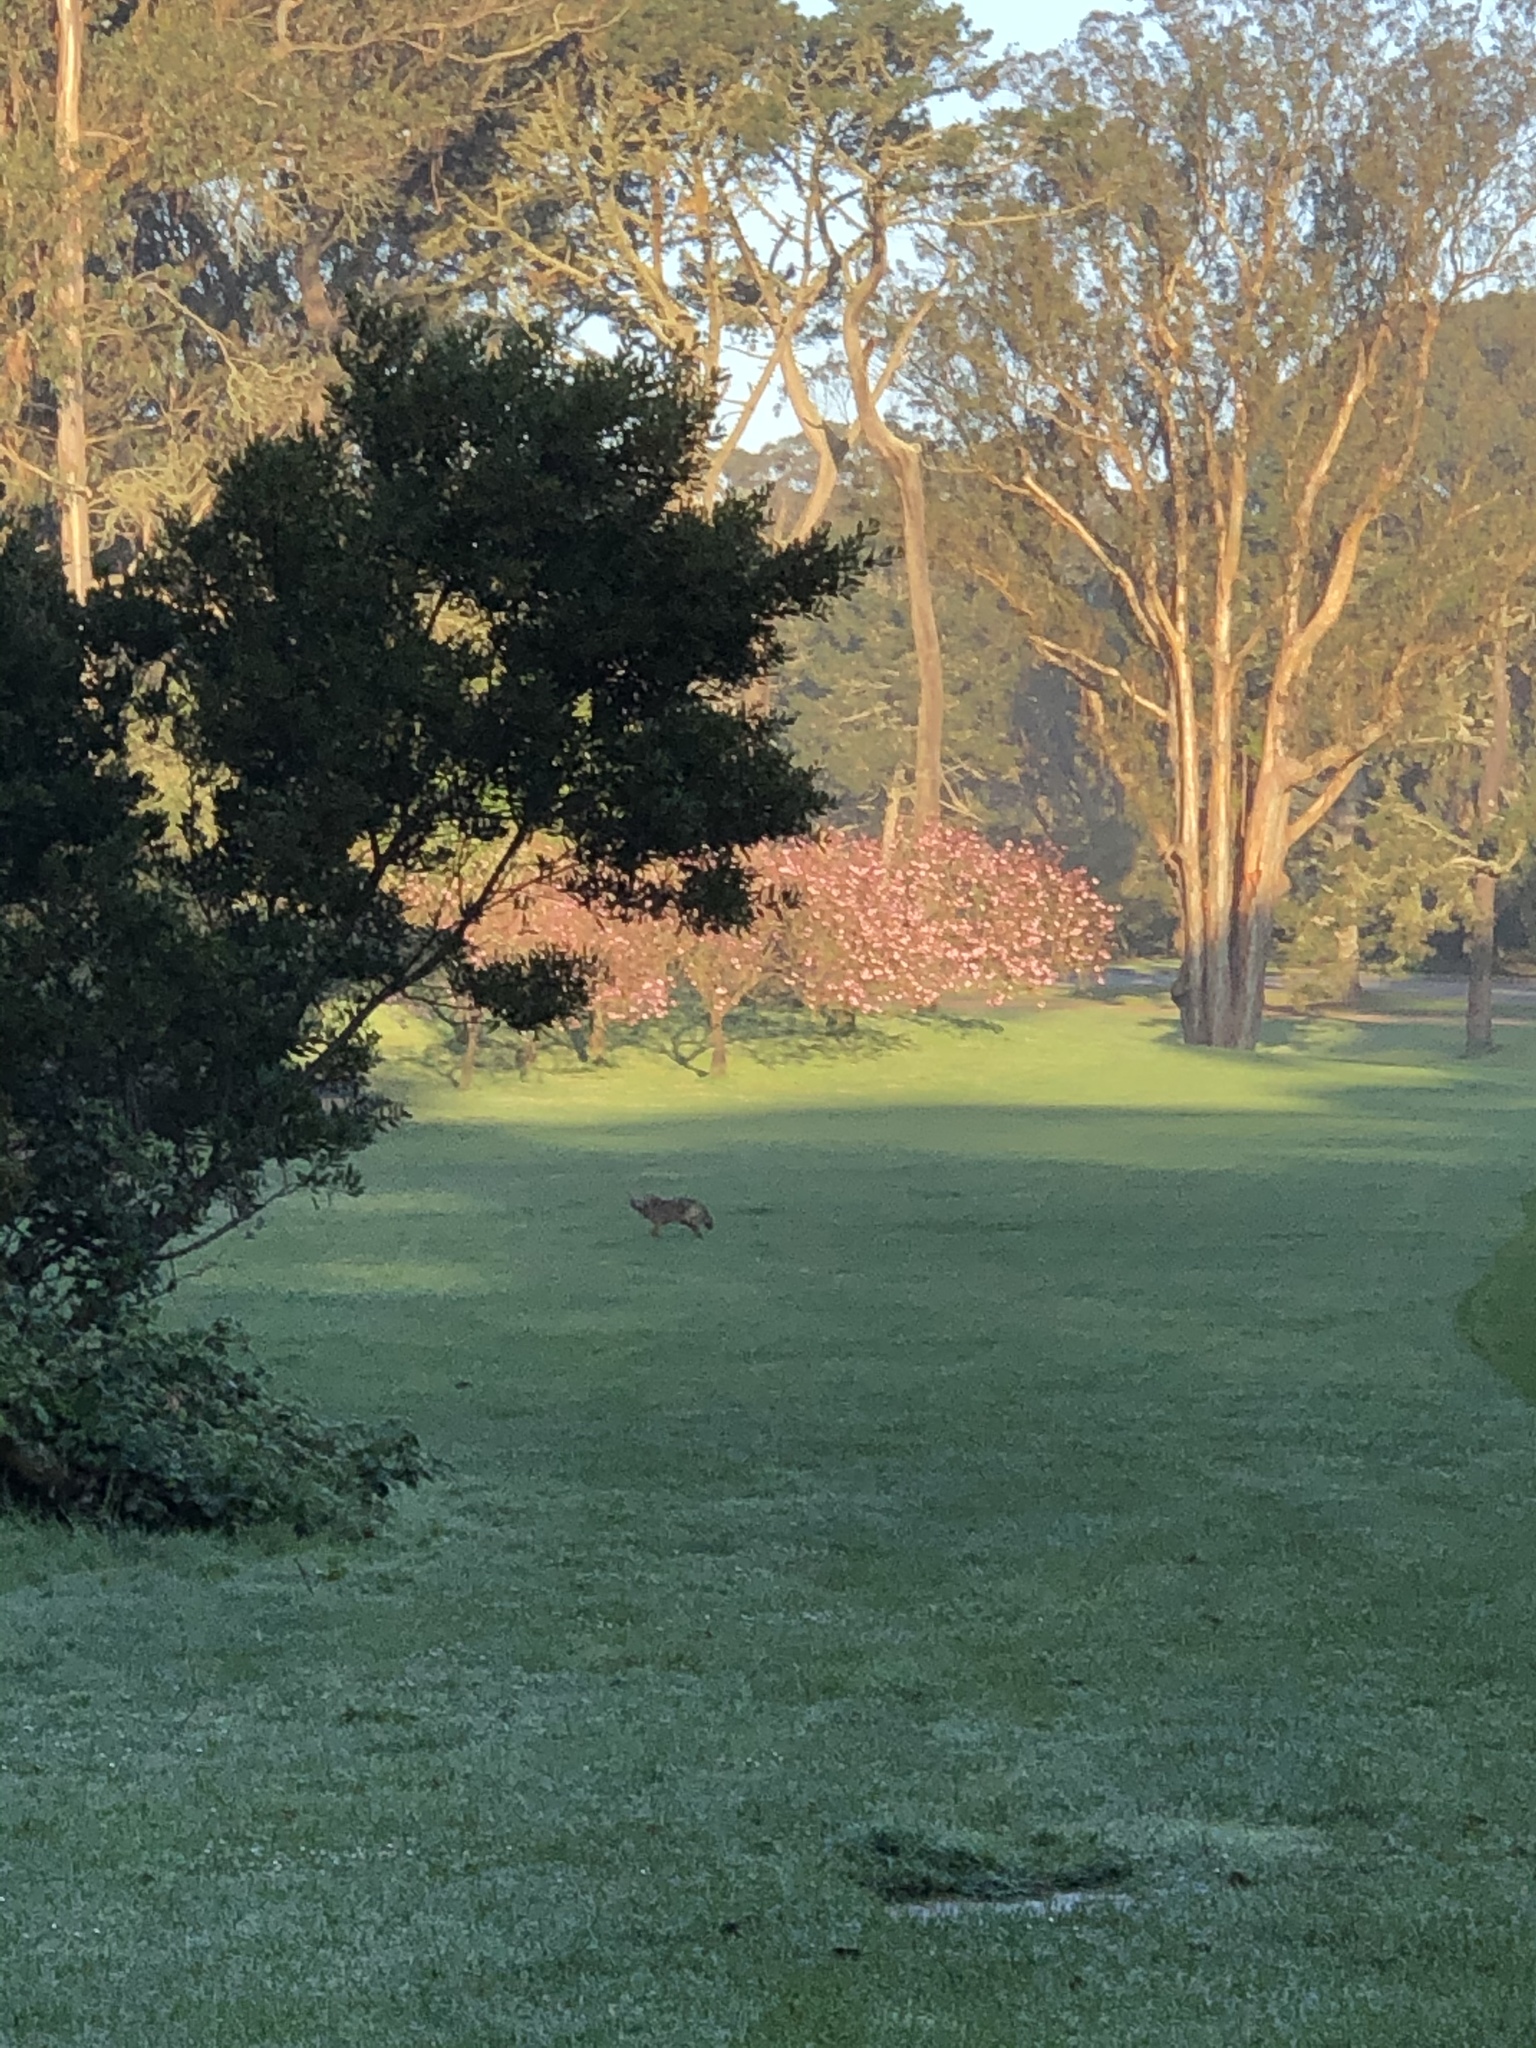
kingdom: Animalia
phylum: Chordata
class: Mammalia
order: Carnivora
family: Canidae
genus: Canis
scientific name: Canis latrans
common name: Coyote
